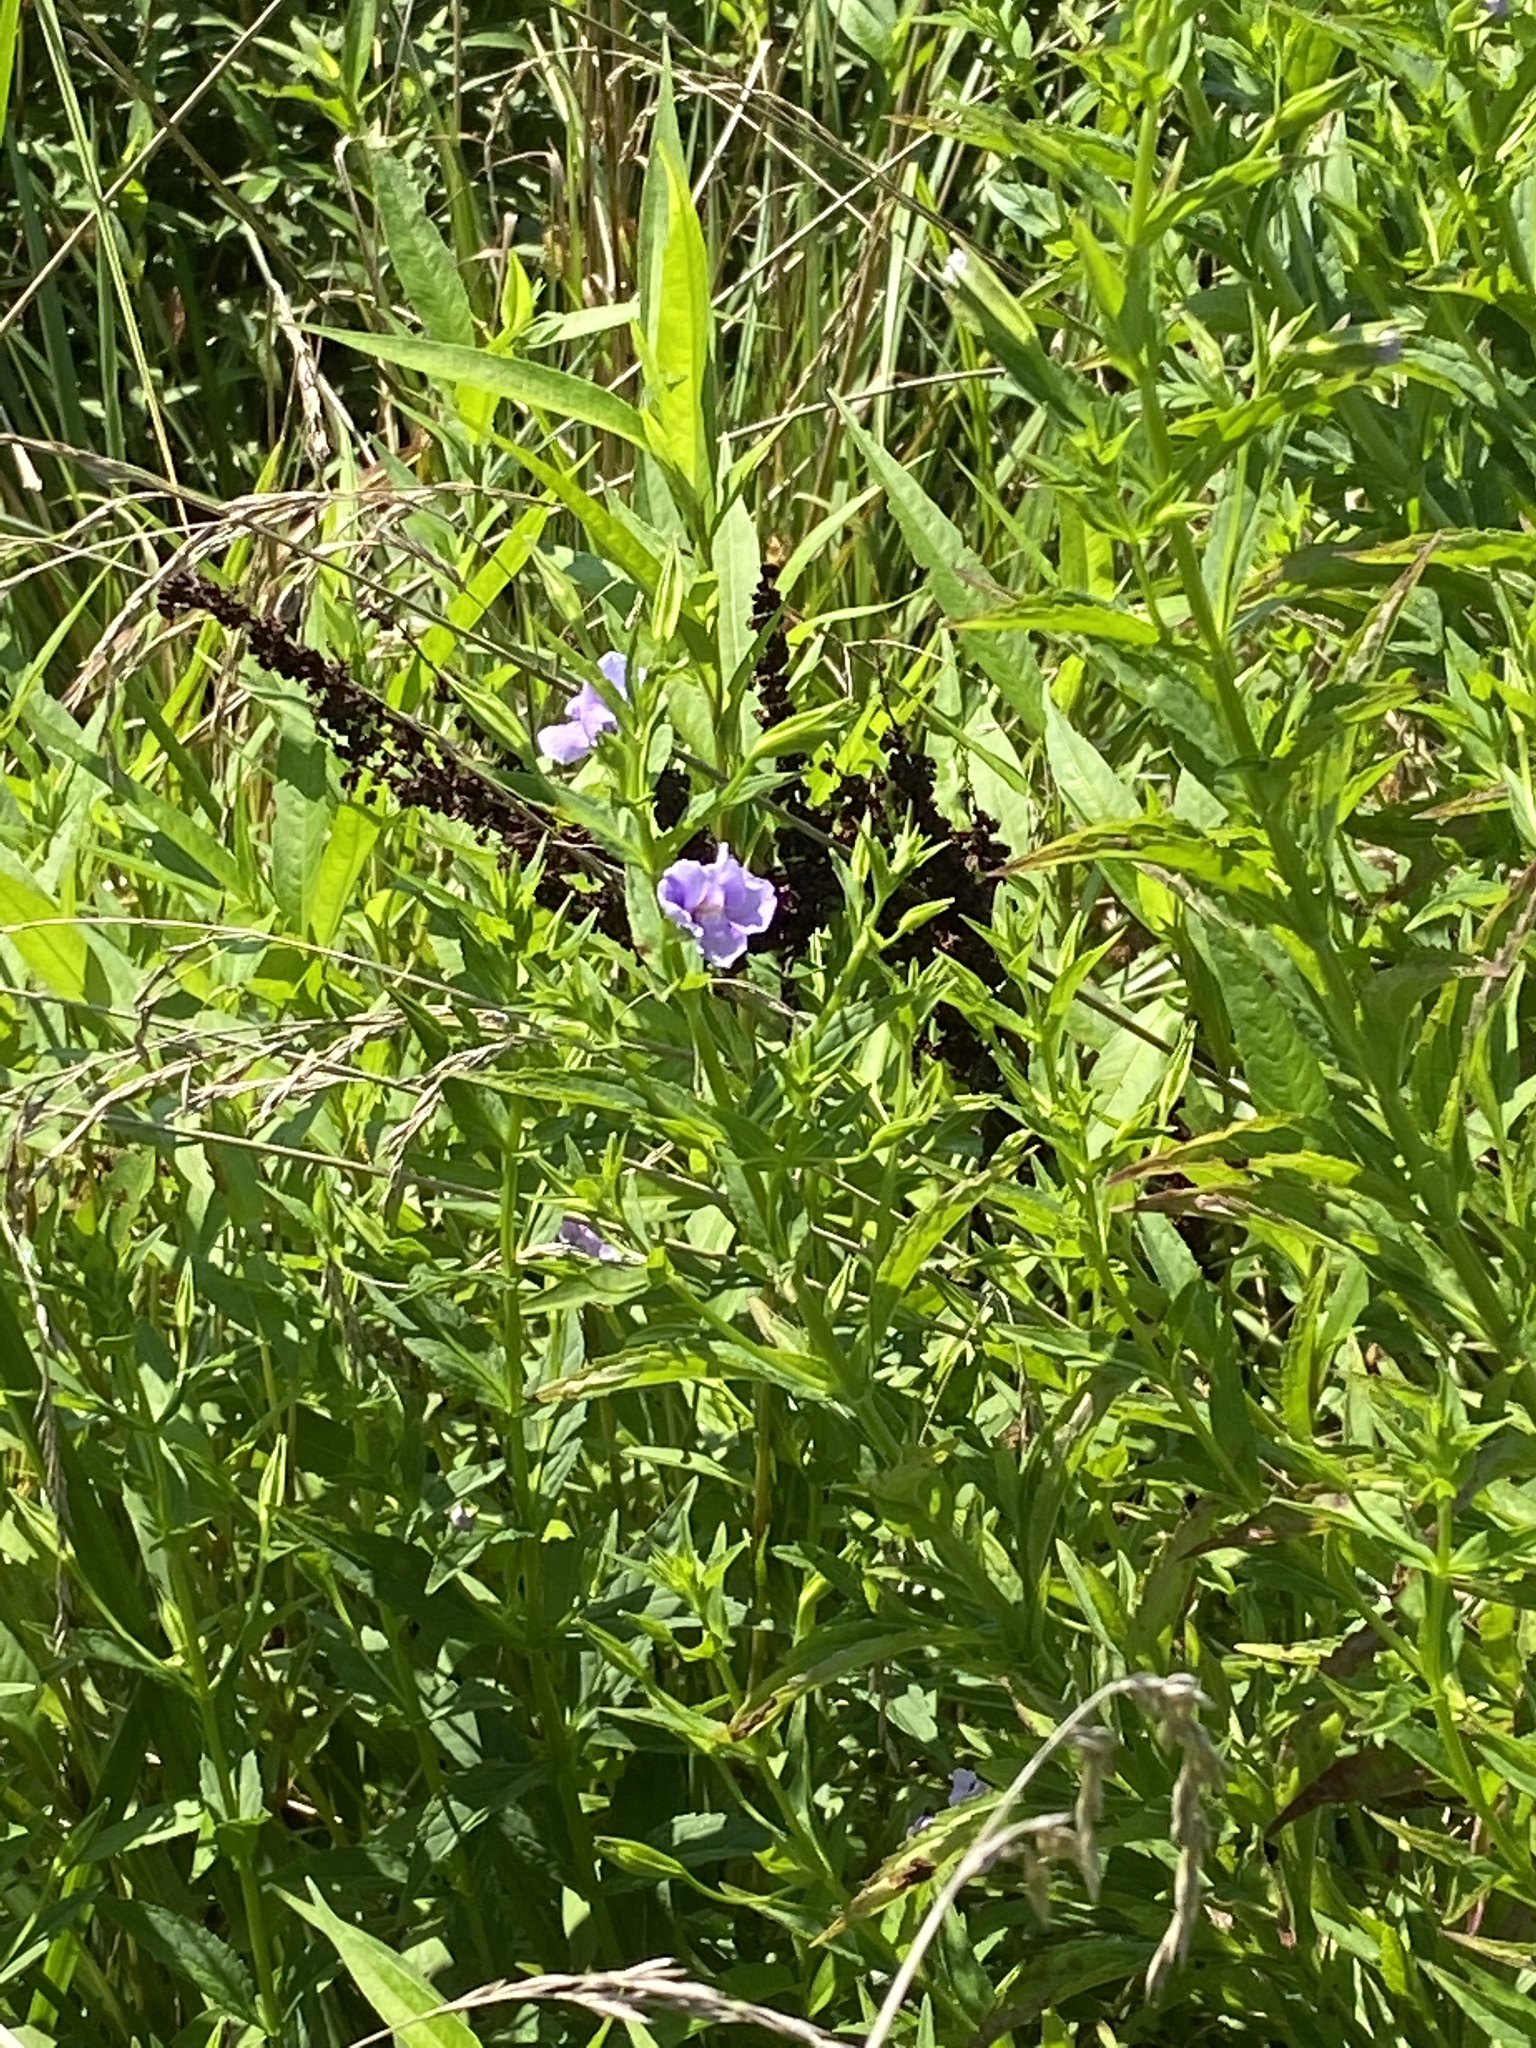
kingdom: Plantae
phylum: Tracheophyta
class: Magnoliopsida
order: Lamiales
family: Phrymaceae
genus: Mimulus
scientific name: Mimulus ringens
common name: Allegheny monkeyflower
